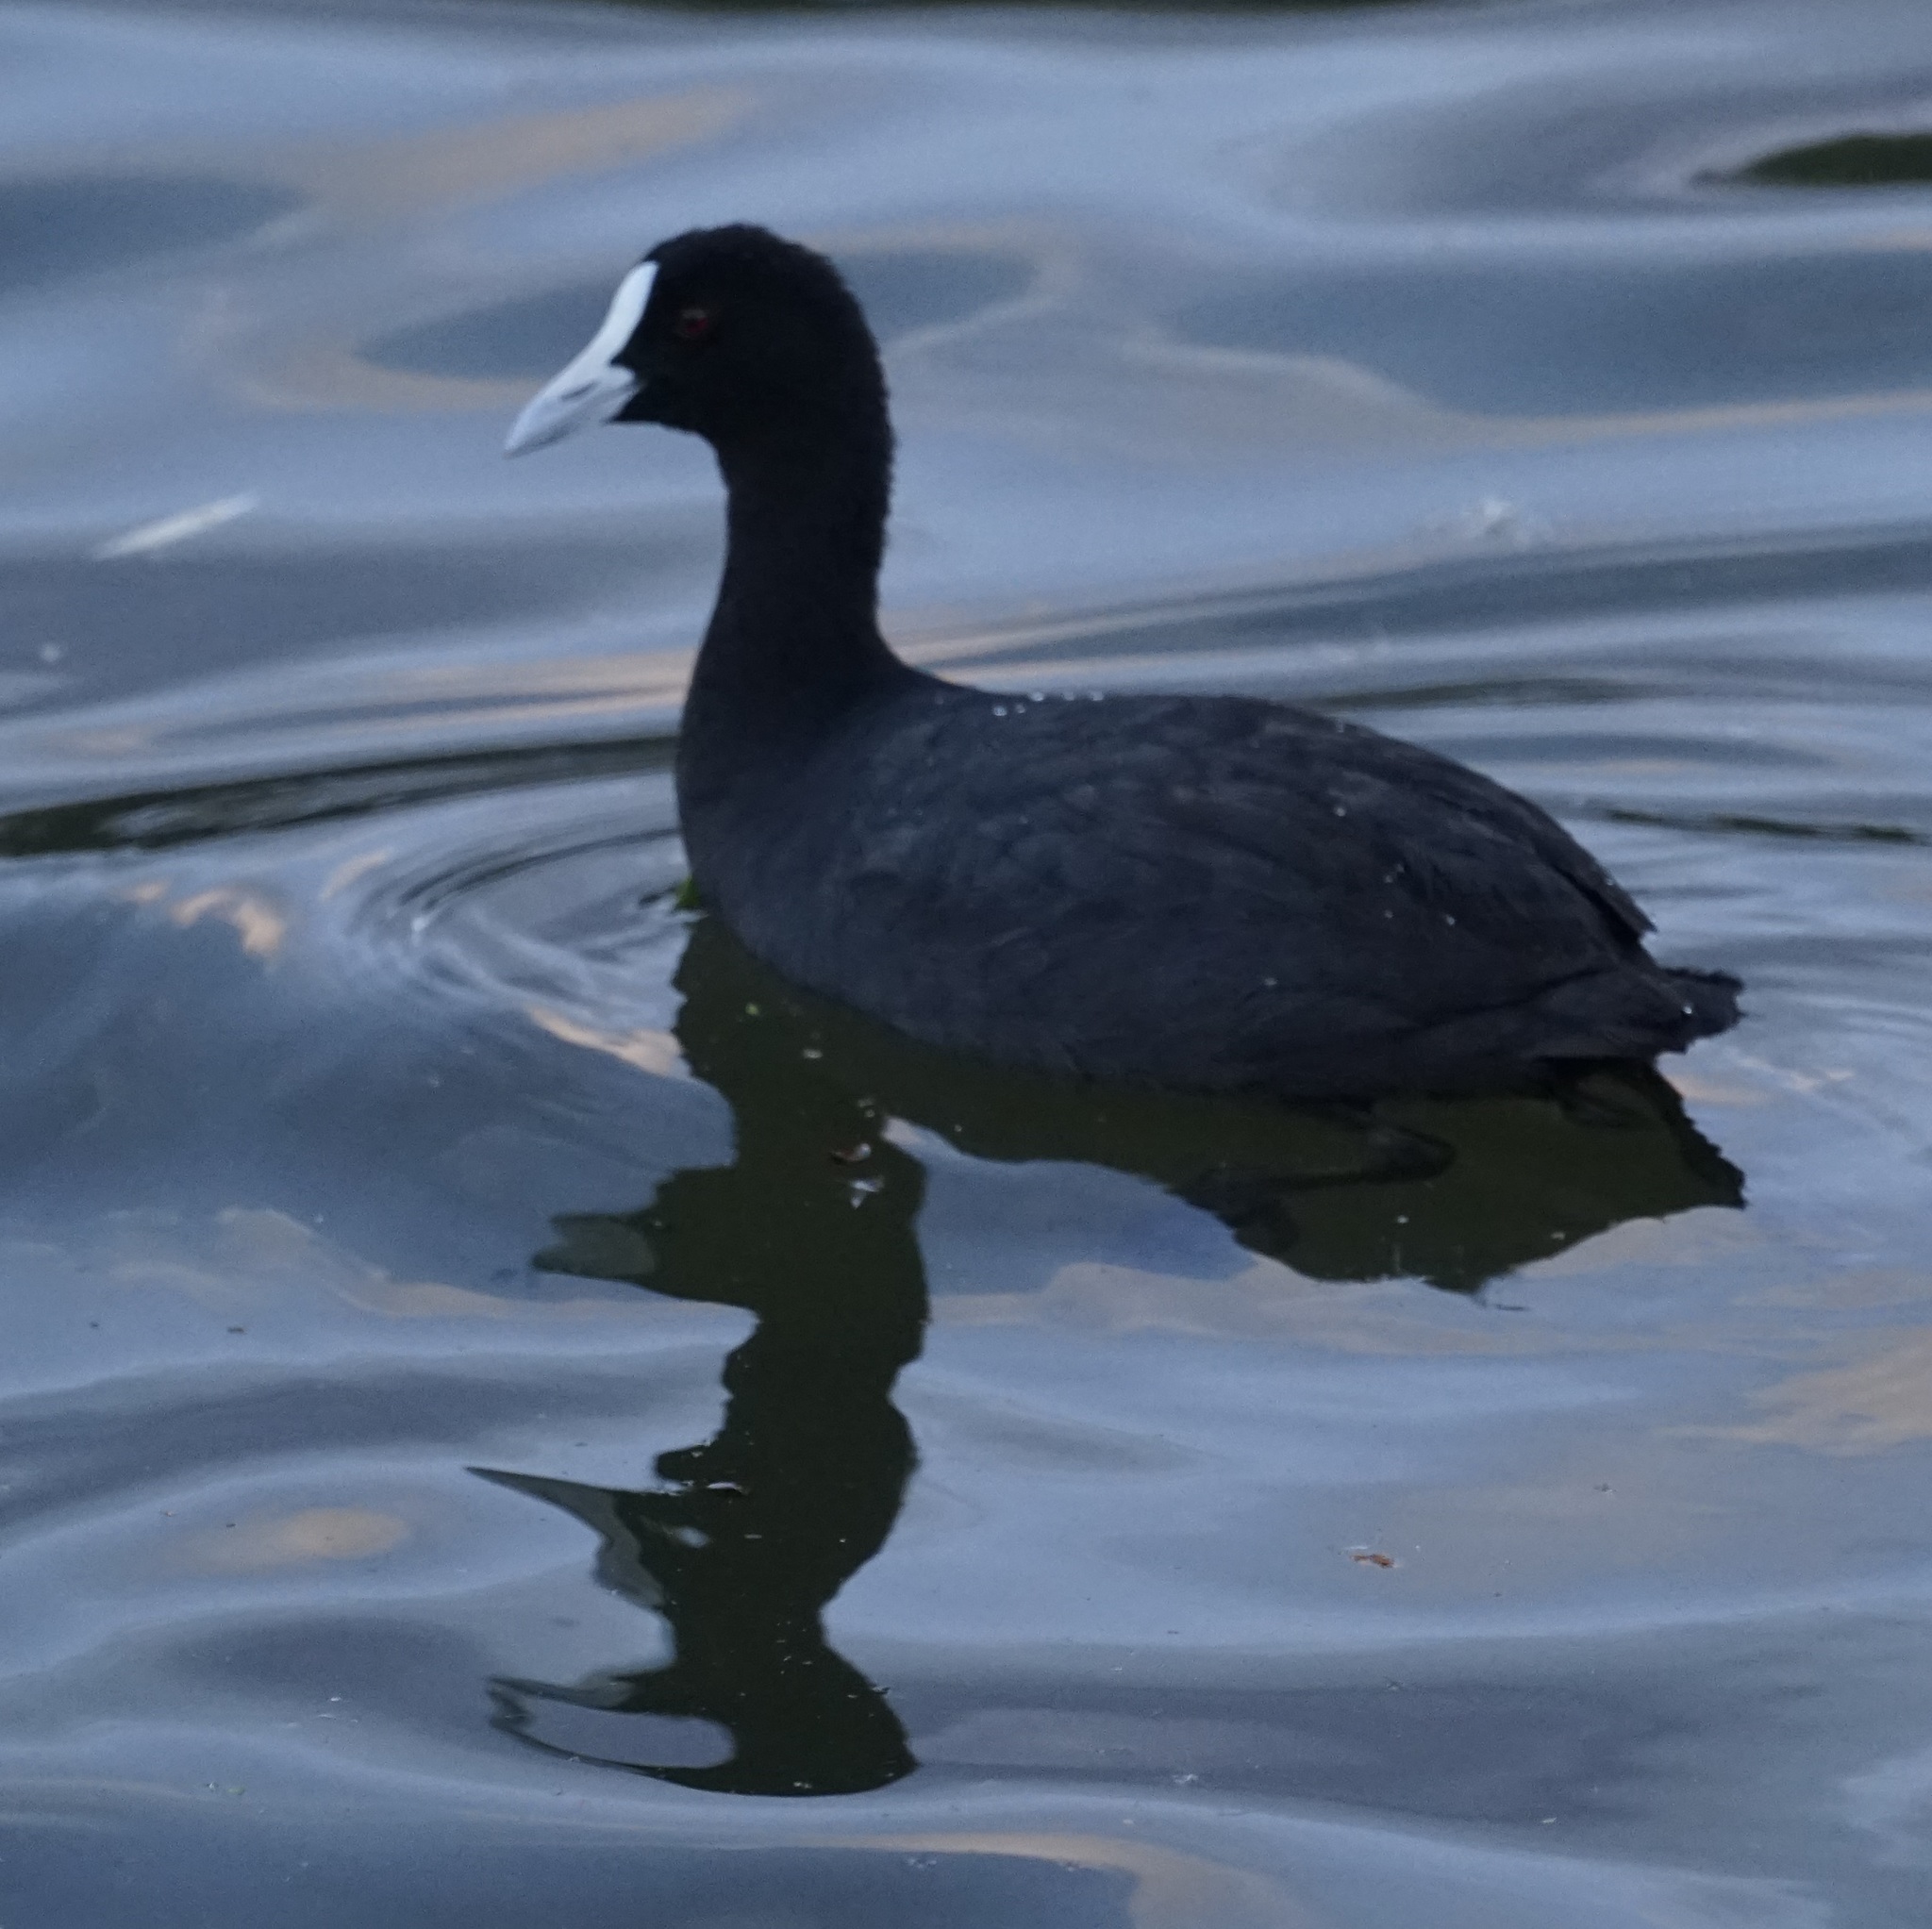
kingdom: Animalia
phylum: Chordata
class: Aves
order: Gruiformes
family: Rallidae
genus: Fulica
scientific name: Fulica atra
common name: Eurasian coot
